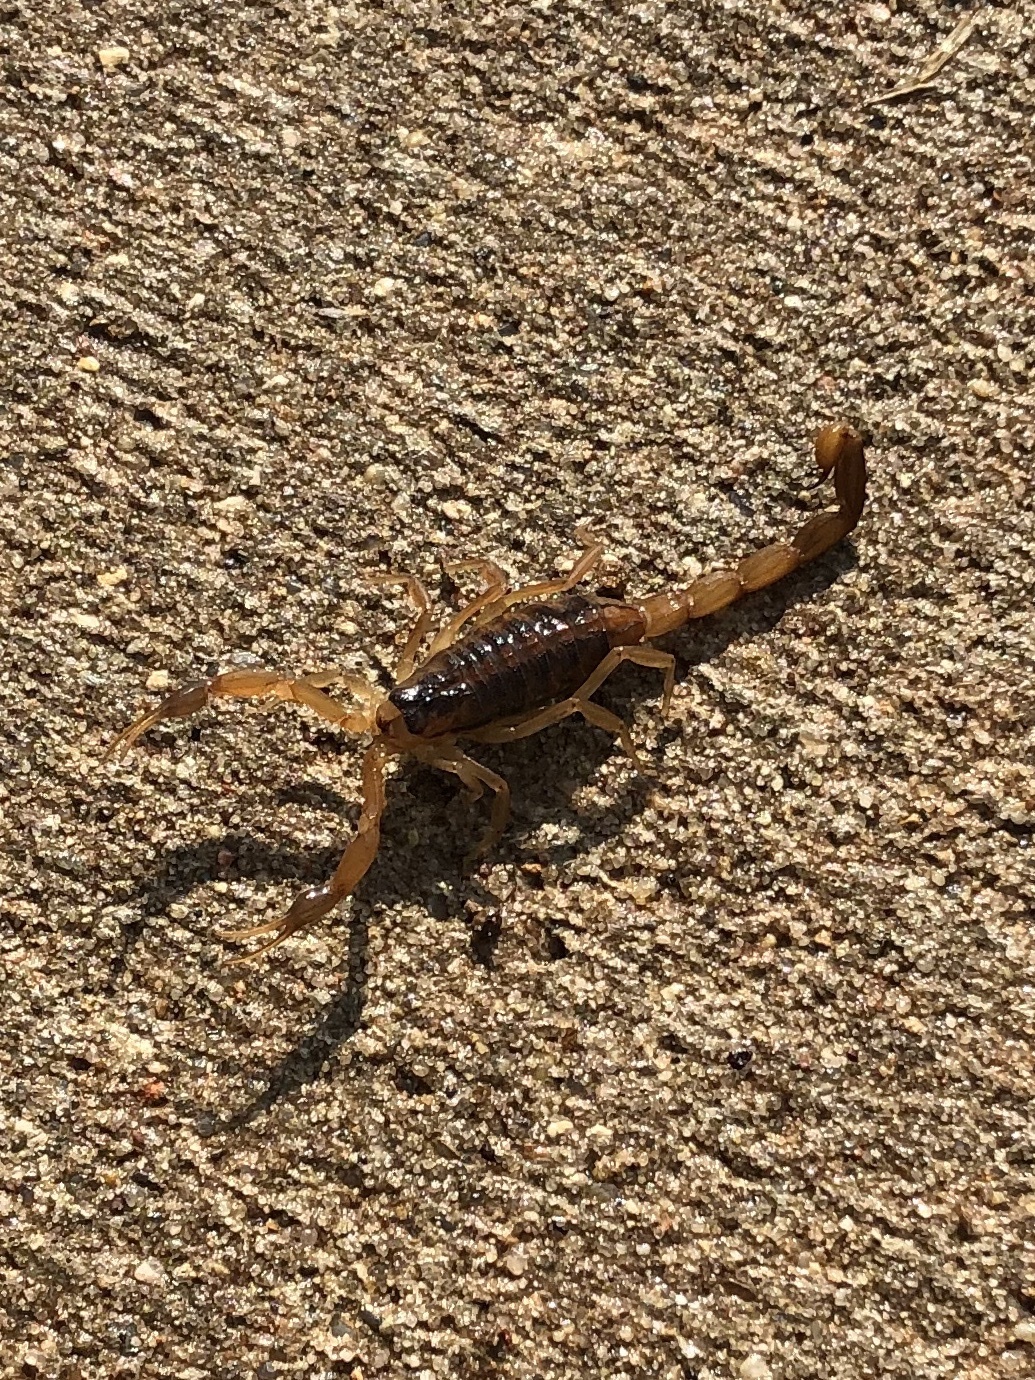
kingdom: Animalia
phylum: Arthropoda
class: Arachnida
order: Scorpiones
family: Buthidae
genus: Centruroides
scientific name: Centruroides vittatus
